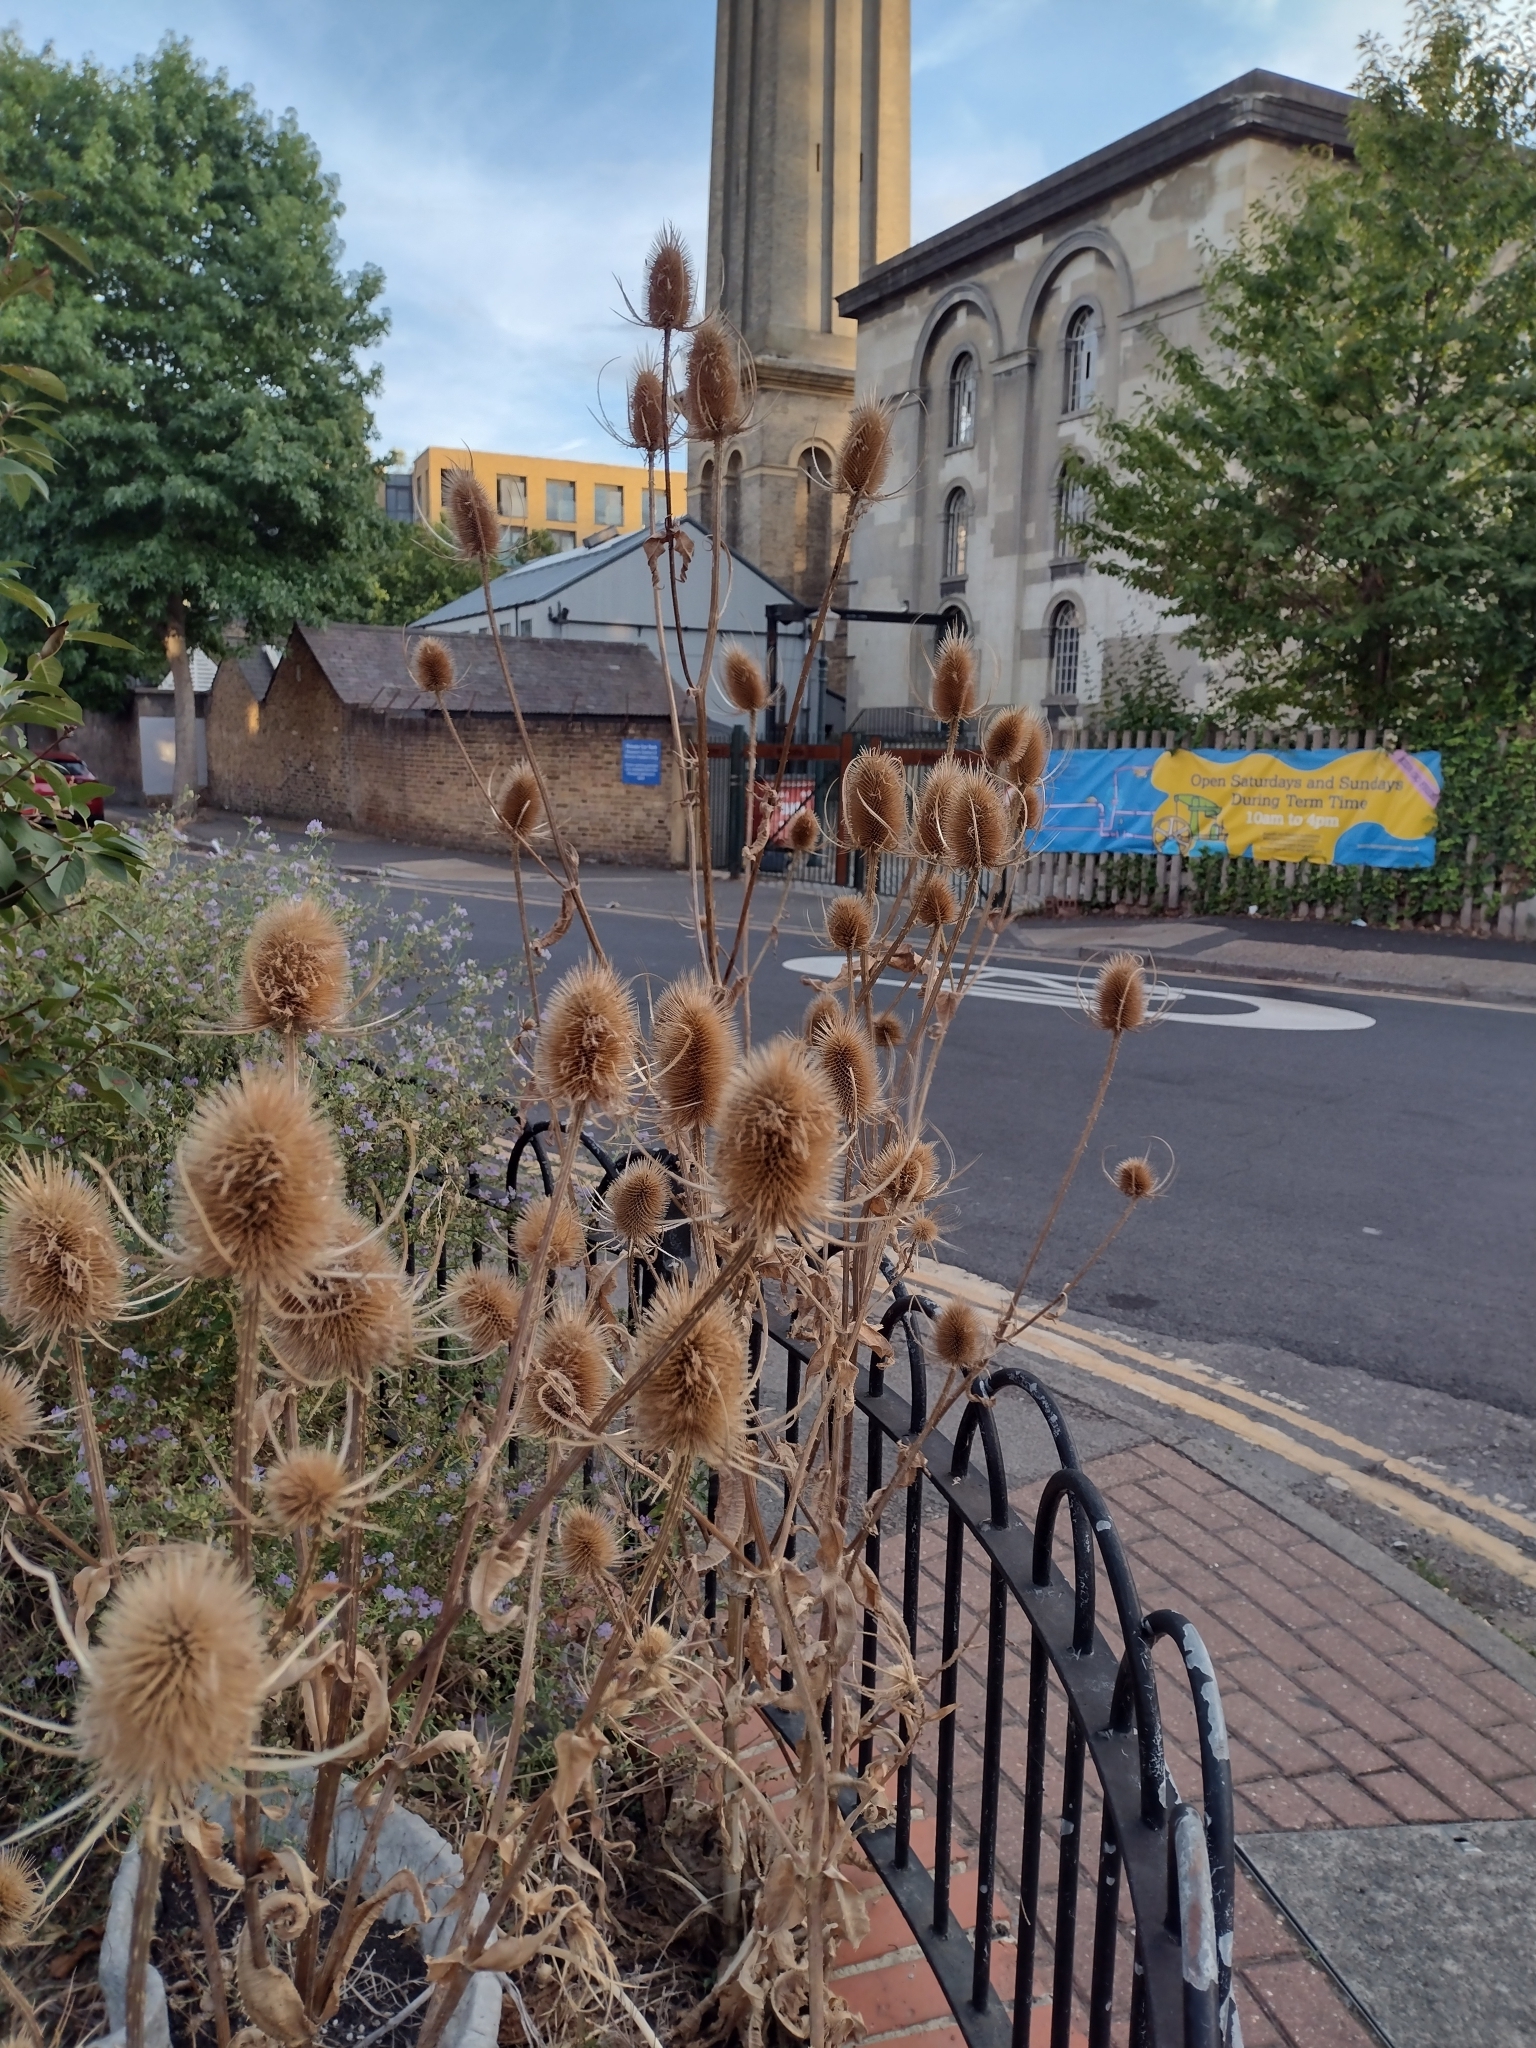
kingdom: Plantae
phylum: Tracheophyta
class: Magnoliopsida
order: Dipsacales
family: Caprifoliaceae
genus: Dipsacus
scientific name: Dipsacus fullonum
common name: Teasel
